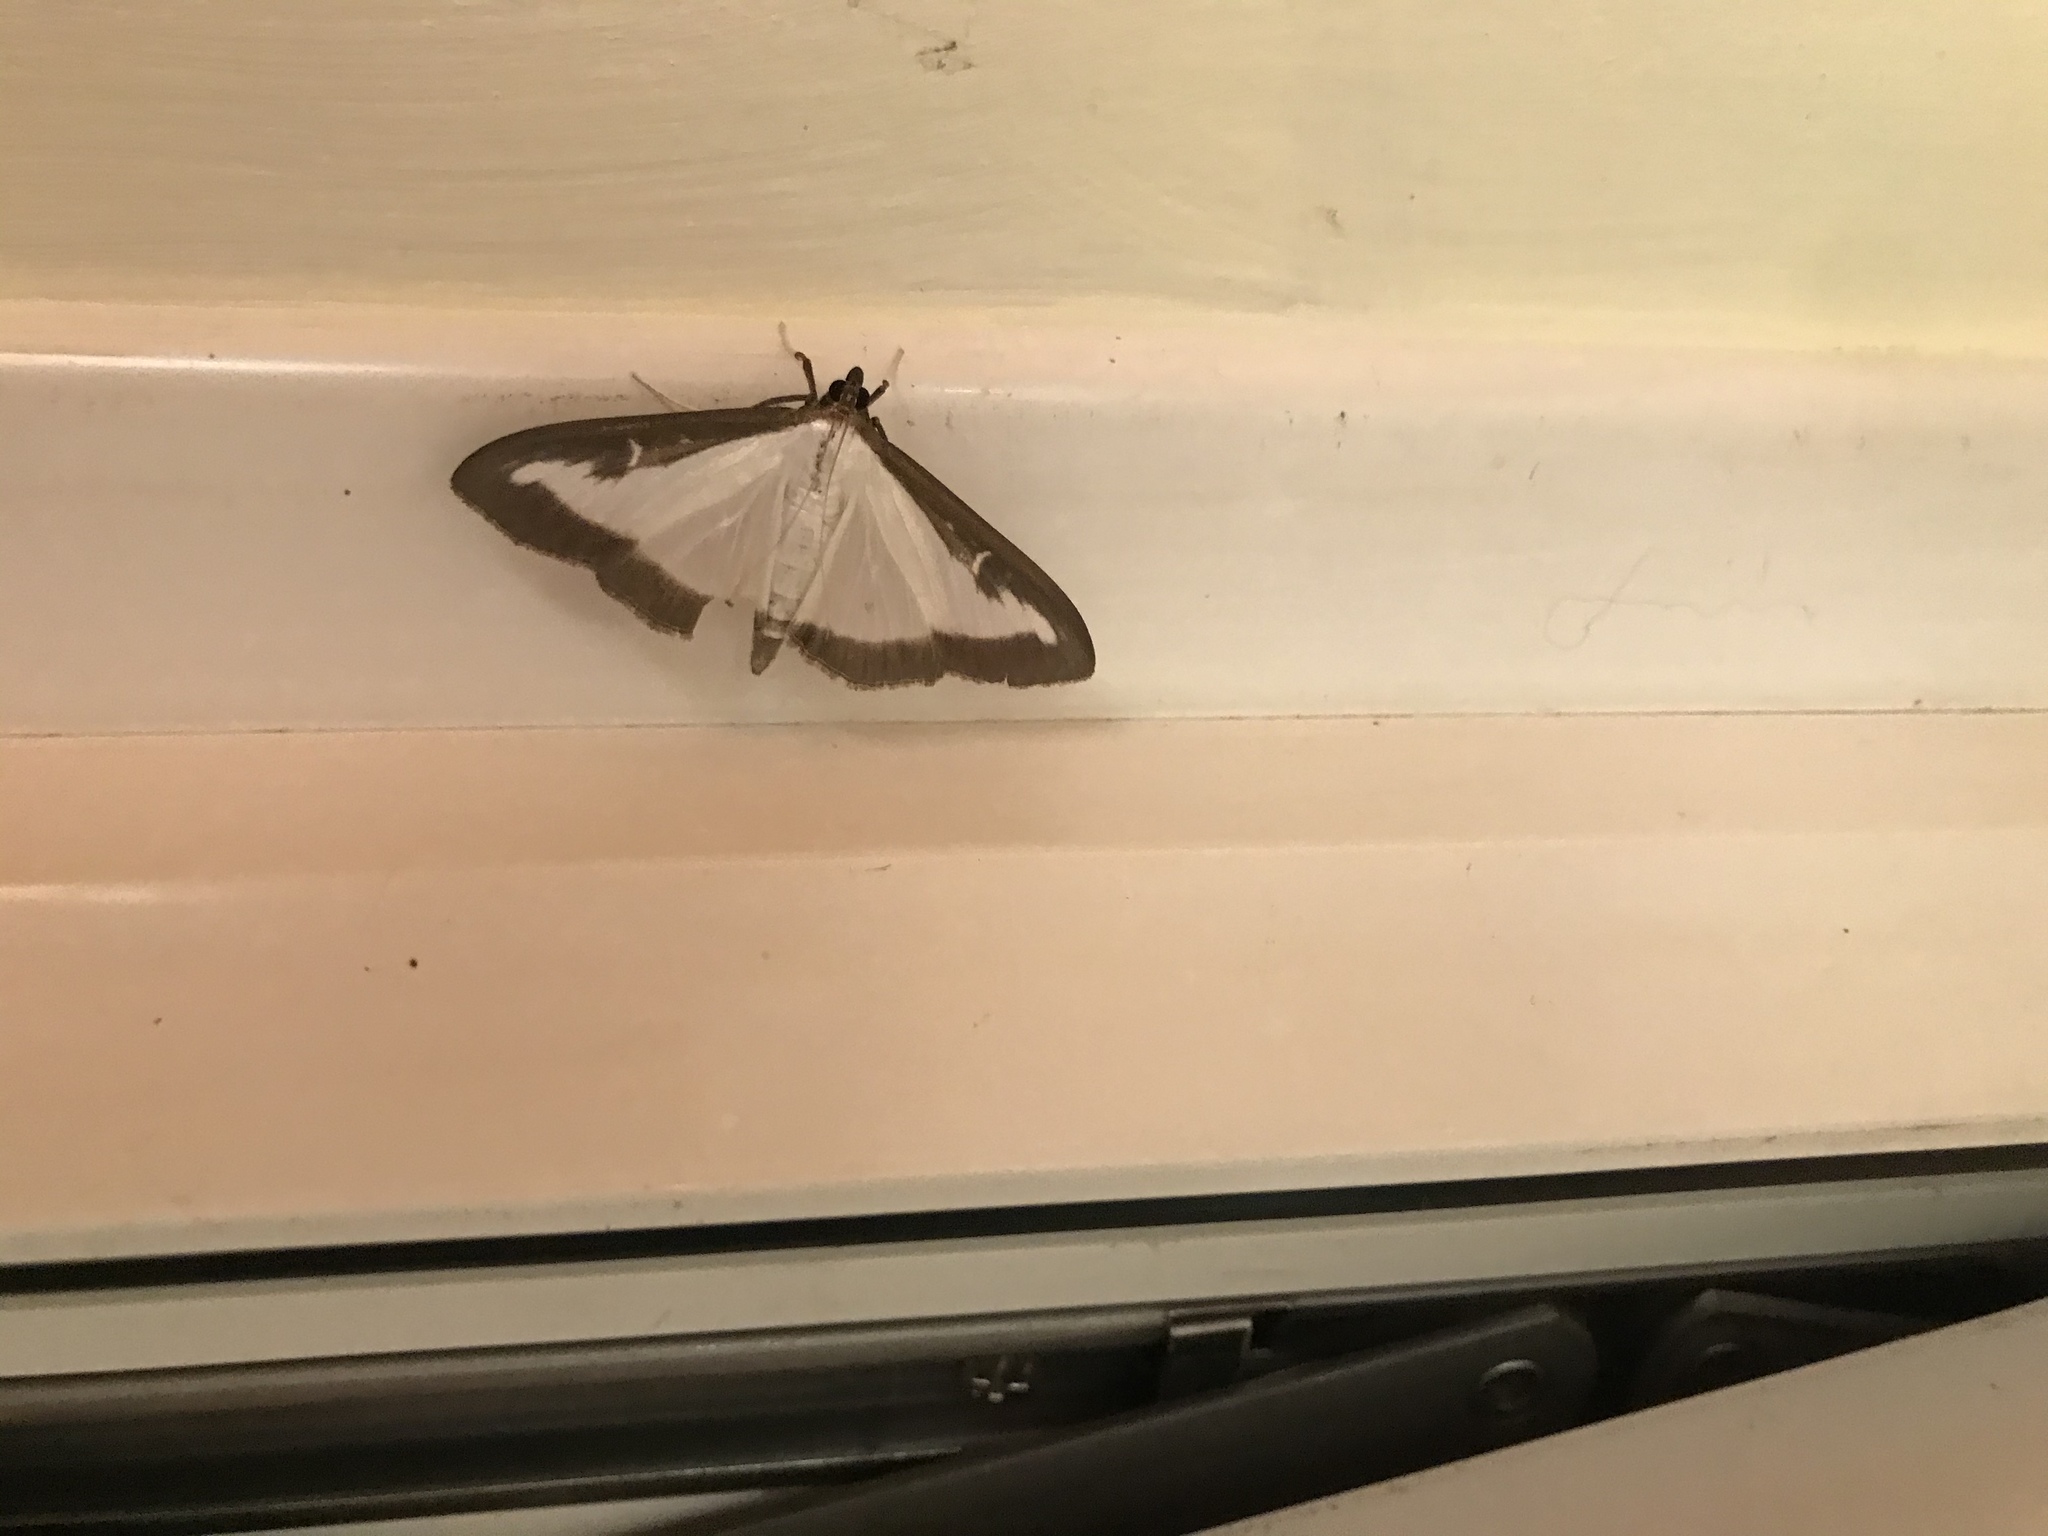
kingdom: Animalia
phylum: Arthropoda
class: Insecta
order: Lepidoptera
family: Crambidae
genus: Cydalima
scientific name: Cydalima perspectalis
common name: Box tree moth
